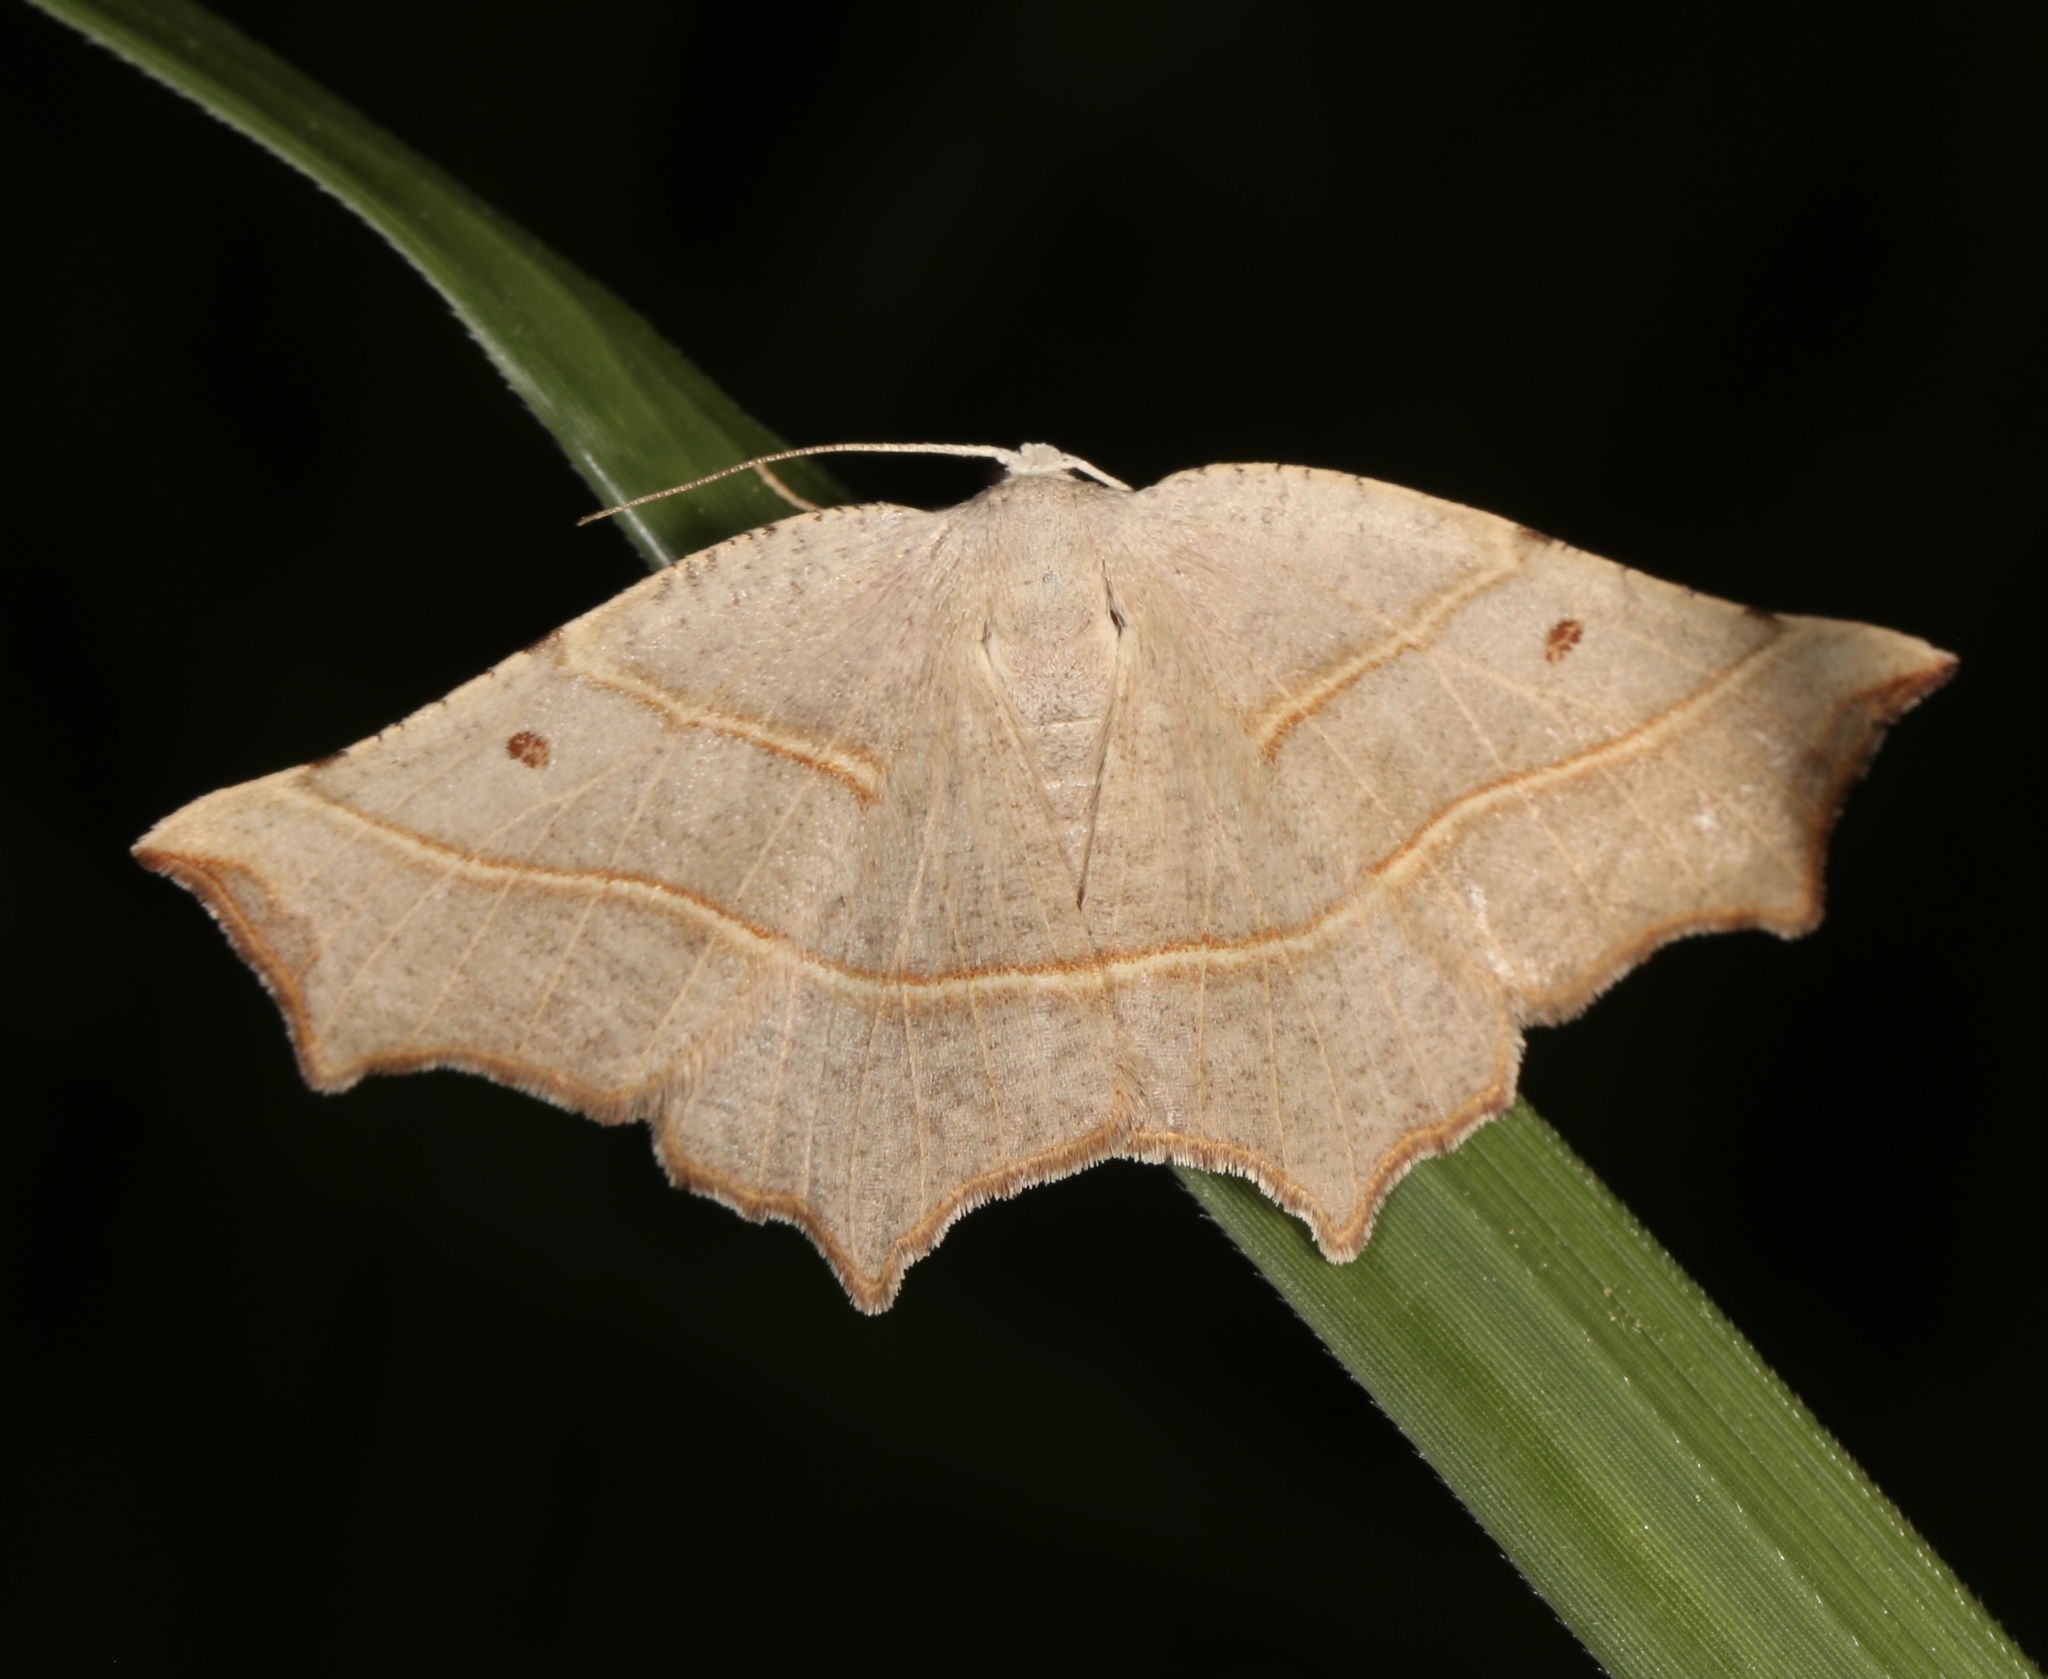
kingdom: Animalia
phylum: Arthropoda
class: Insecta
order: Lepidoptera
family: Geometridae
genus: Metanema
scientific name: Metanema inatomaria
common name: Pale metanema
